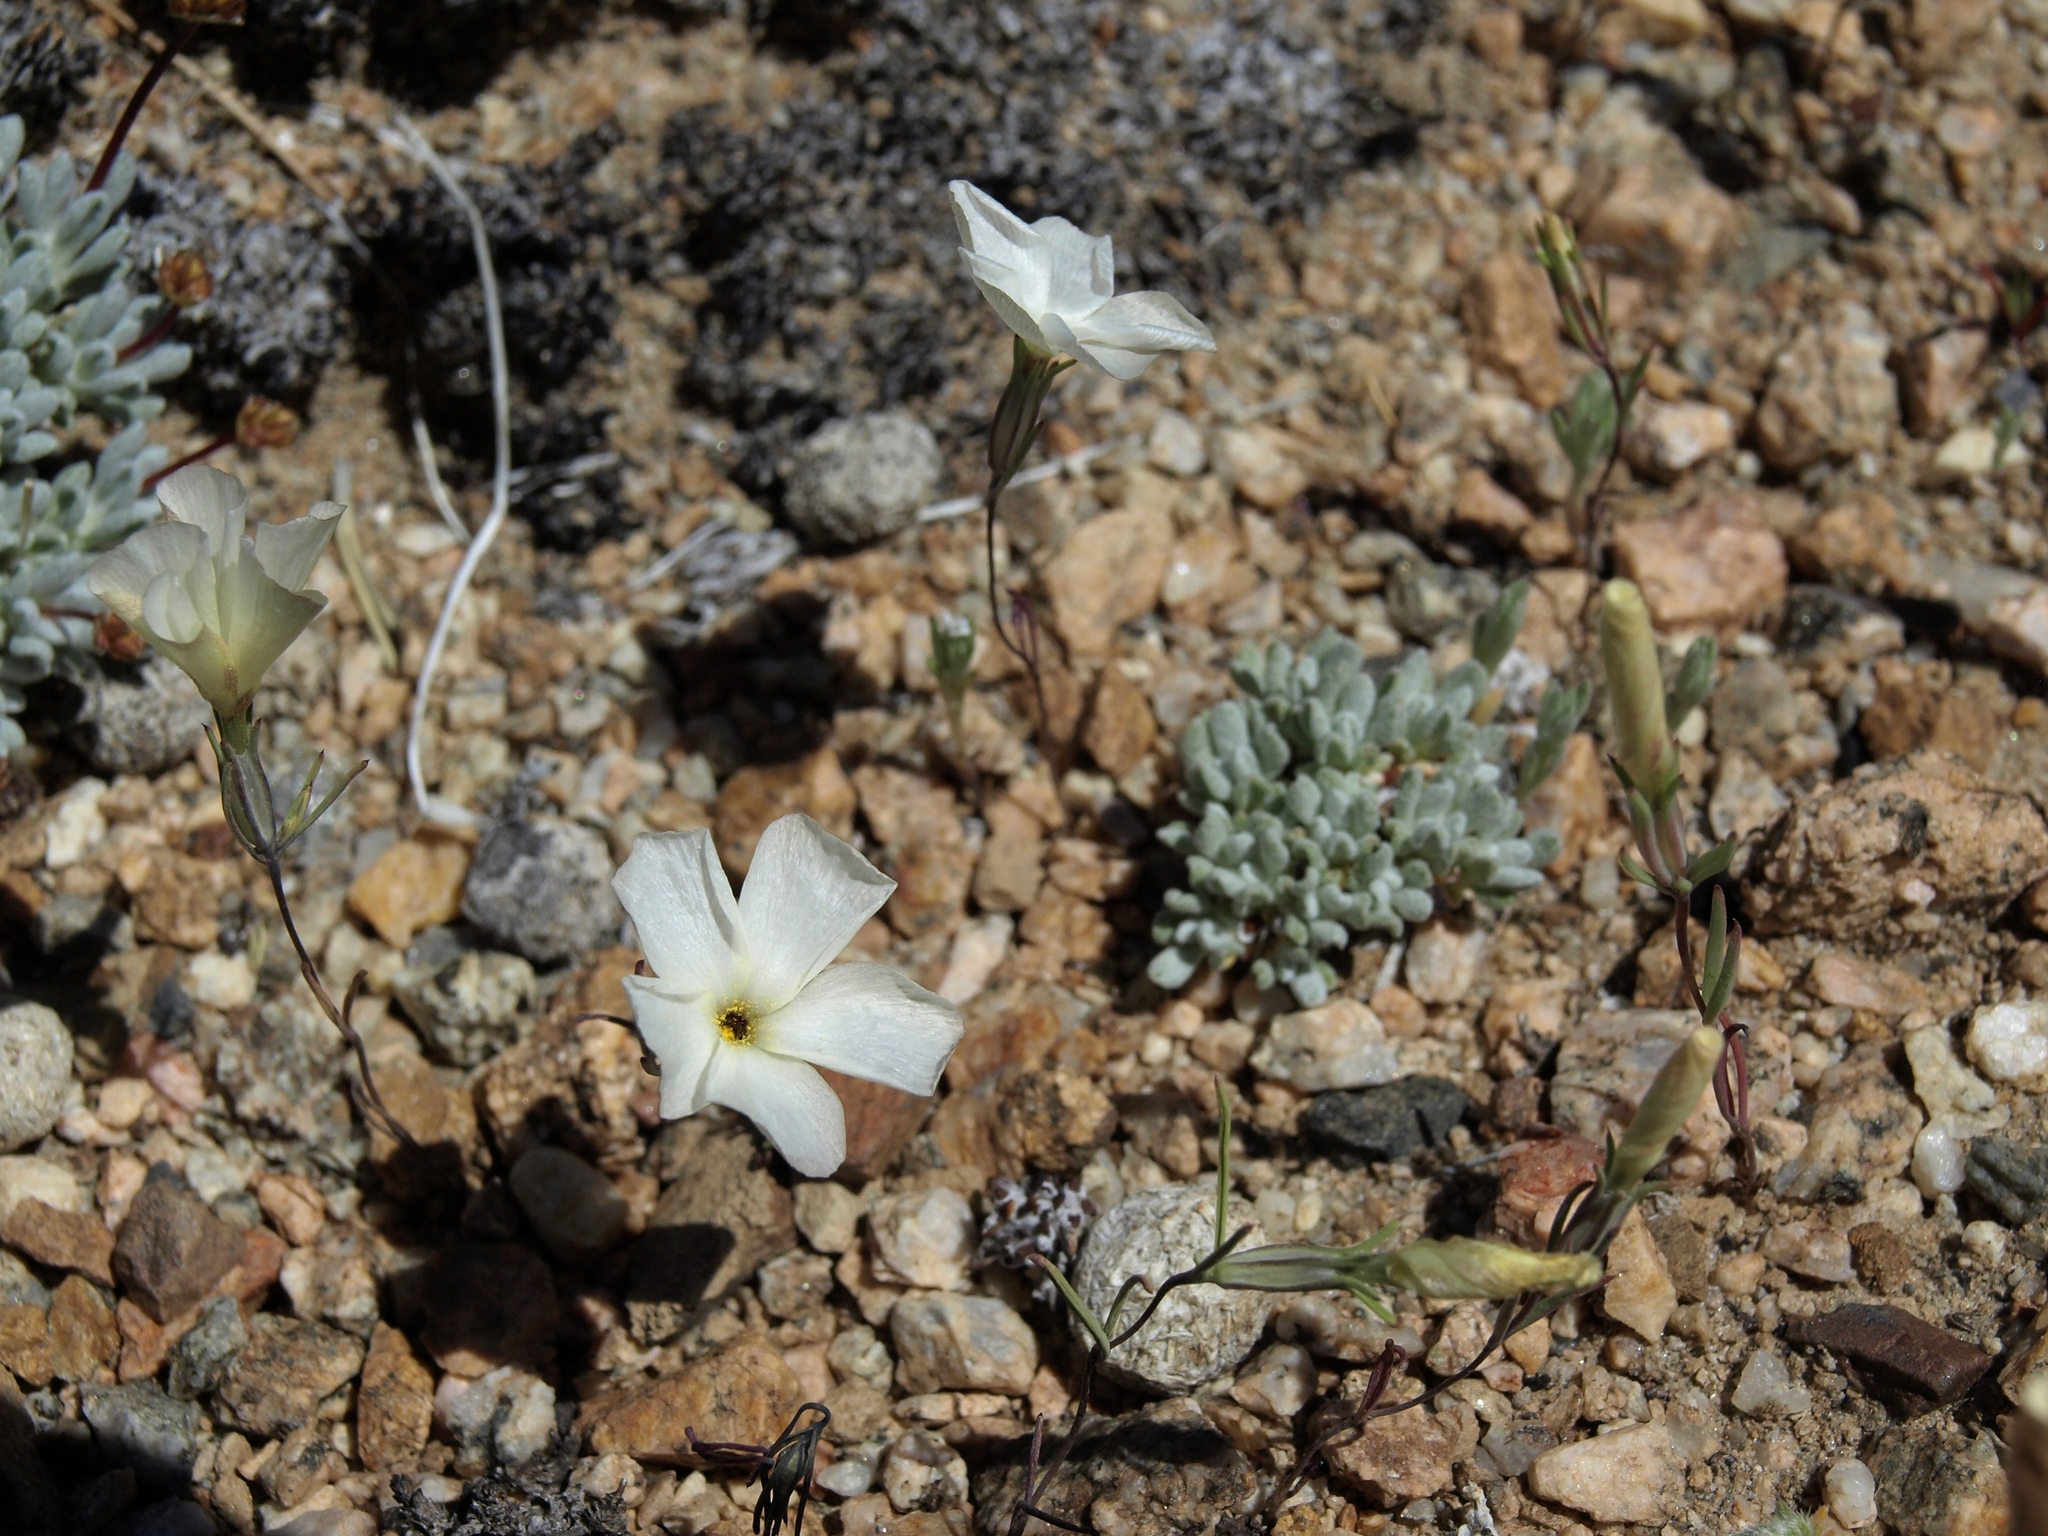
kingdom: Plantae
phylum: Tracheophyta
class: Magnoliopsida
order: Ericales
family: Polemoniaceae
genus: Linanthus
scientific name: Linanthus dichotomus
